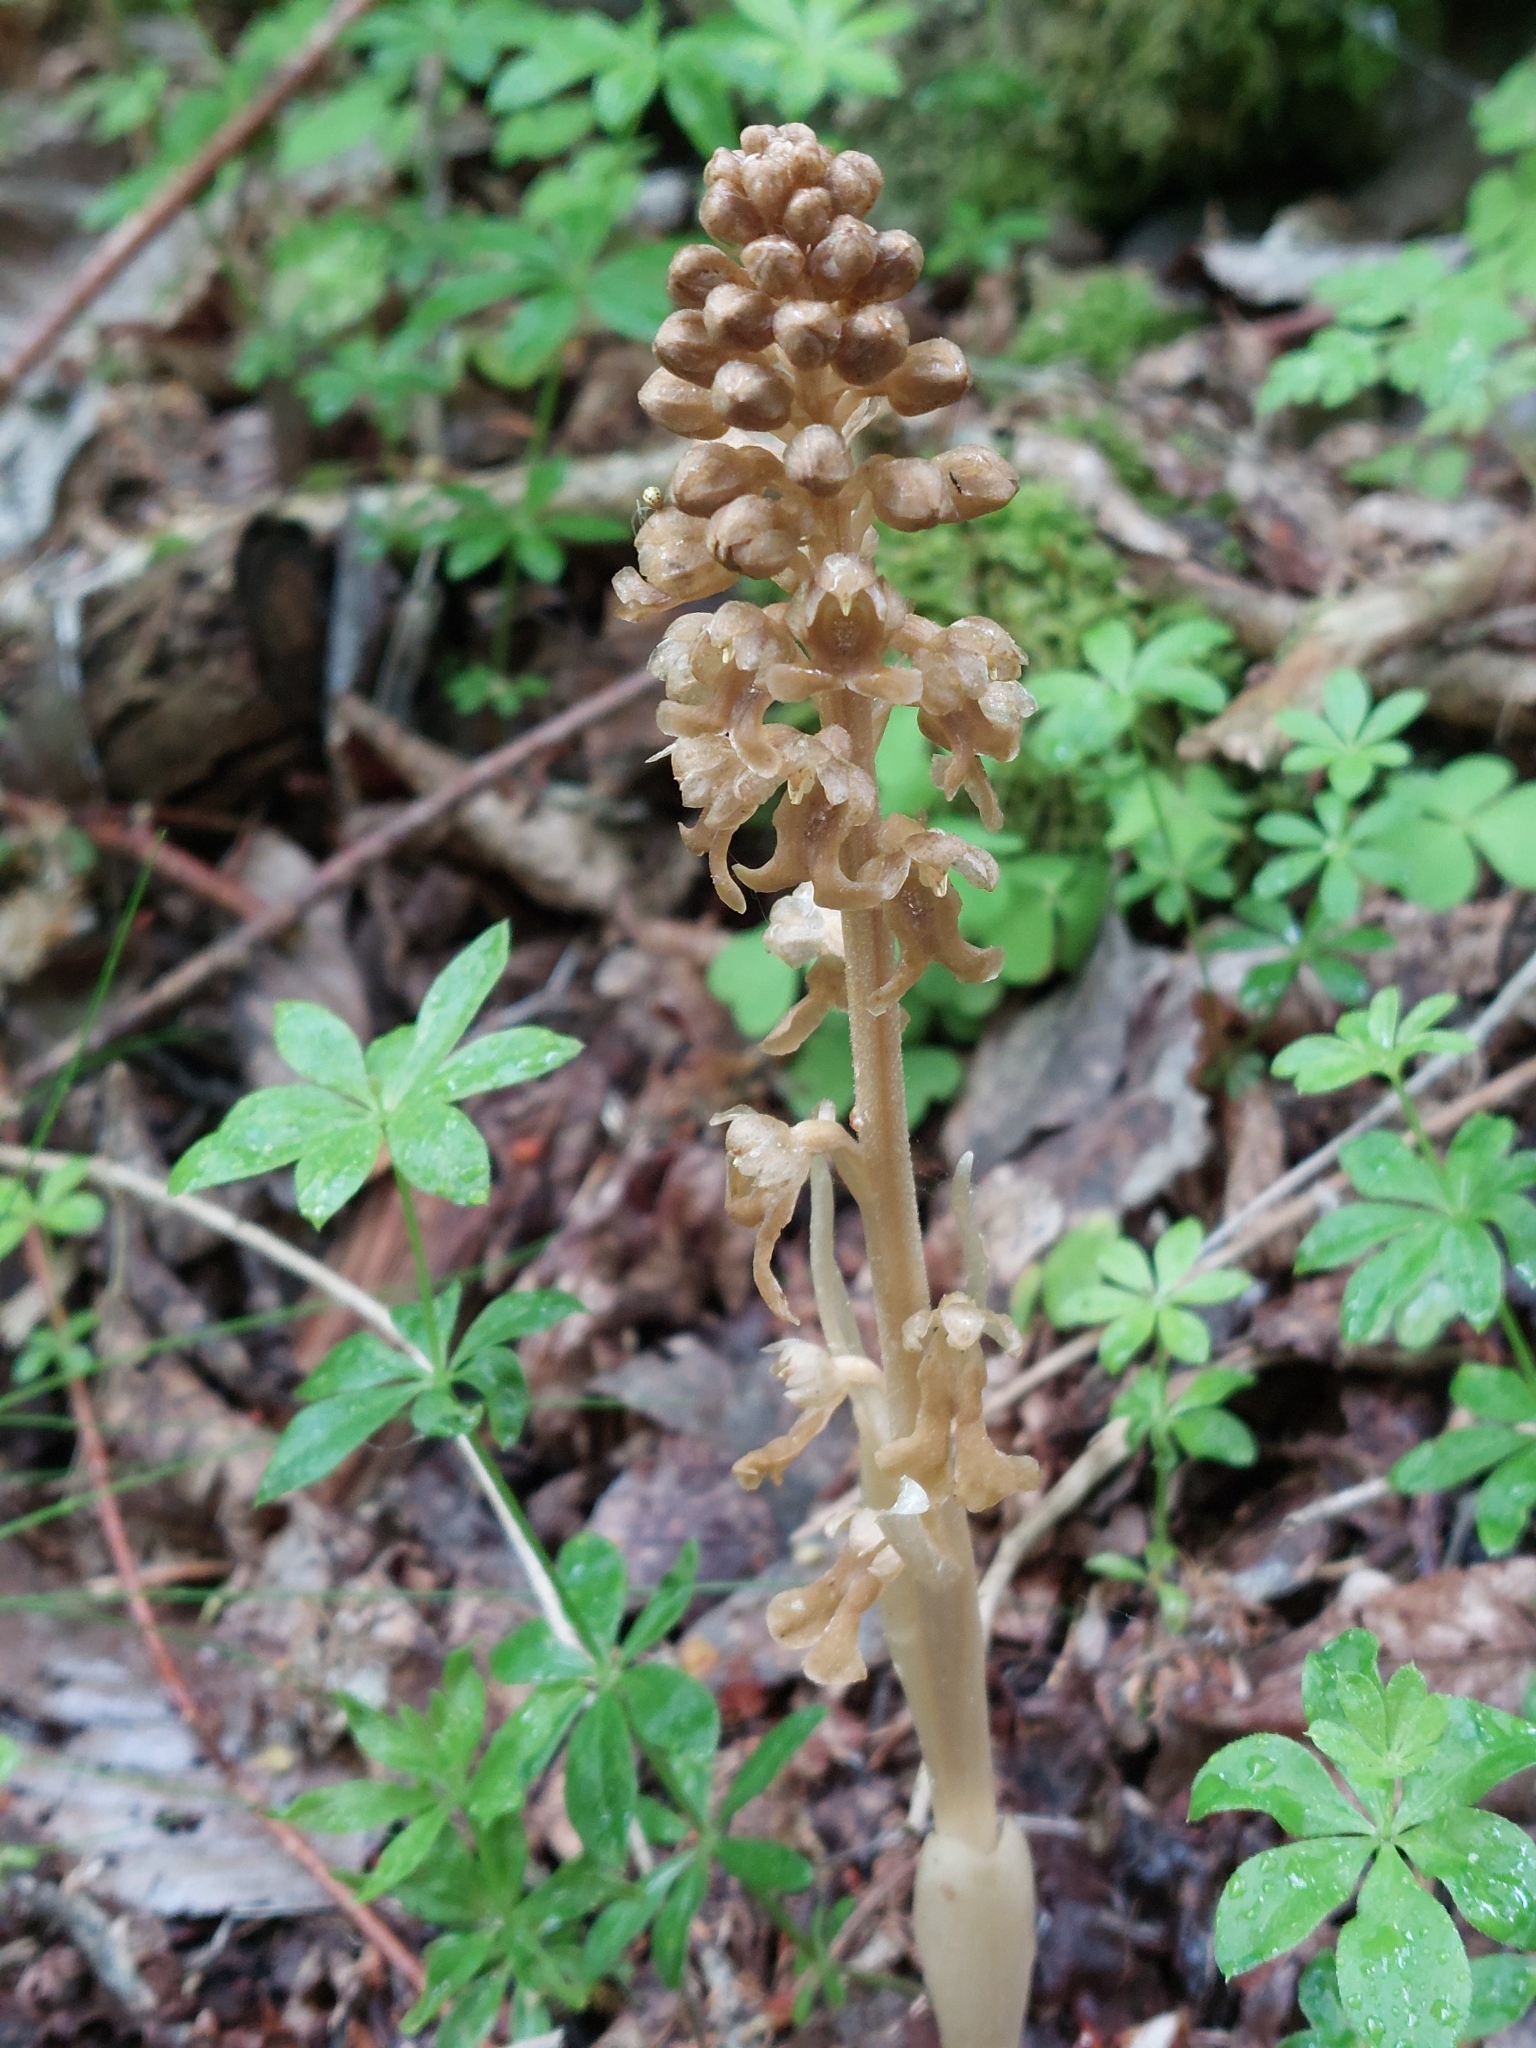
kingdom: Plantae
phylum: Tracheophyta
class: Liliopsida
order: Asparagales
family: Orchidaceae
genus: Neottia
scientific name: Neottia nidus-avis
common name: Bird's-nest orchid
